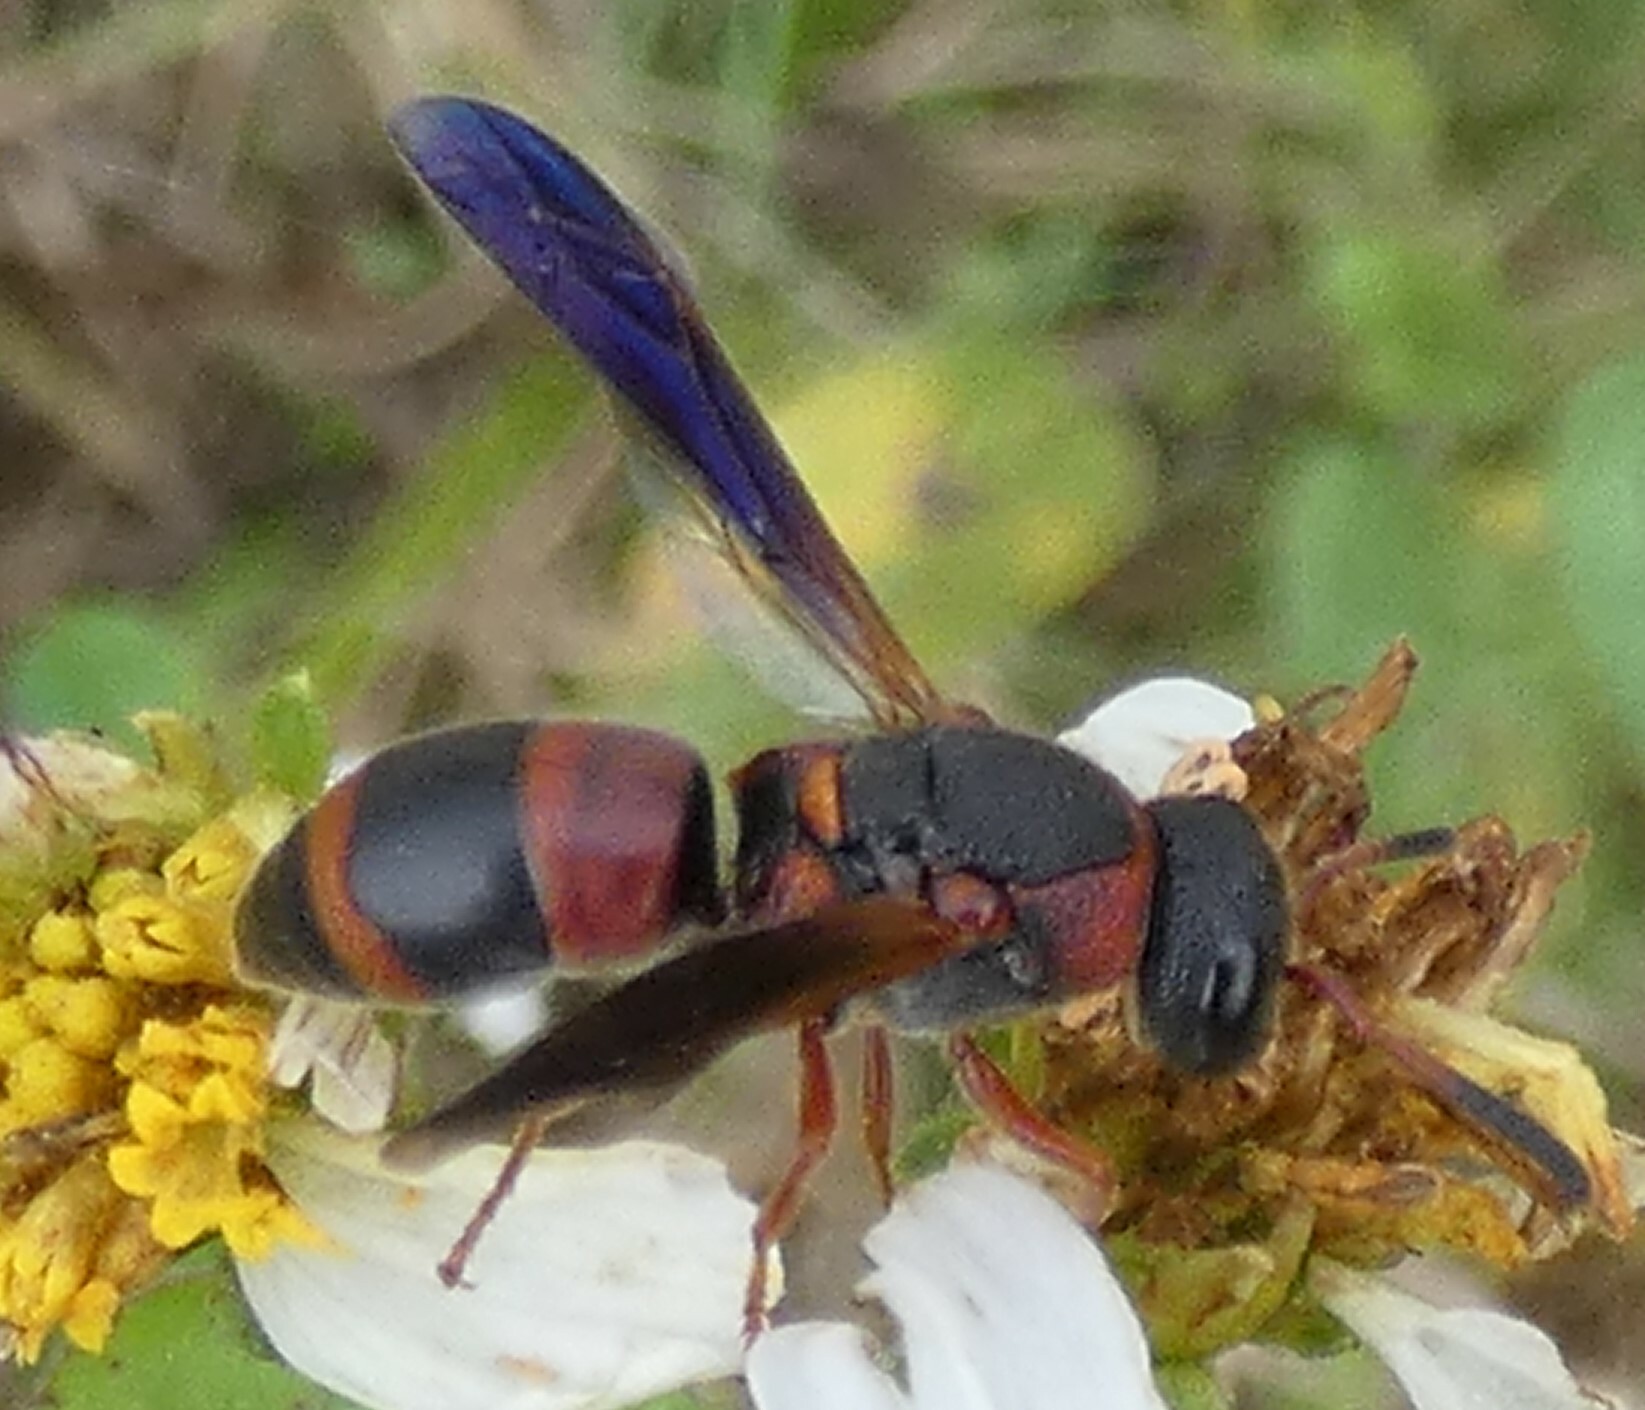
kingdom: Animalia
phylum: Arthropoda
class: Insecta
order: Hymenoptera
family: Eumenidae
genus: Pachodynerus
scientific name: Pachodynerus erynnis
